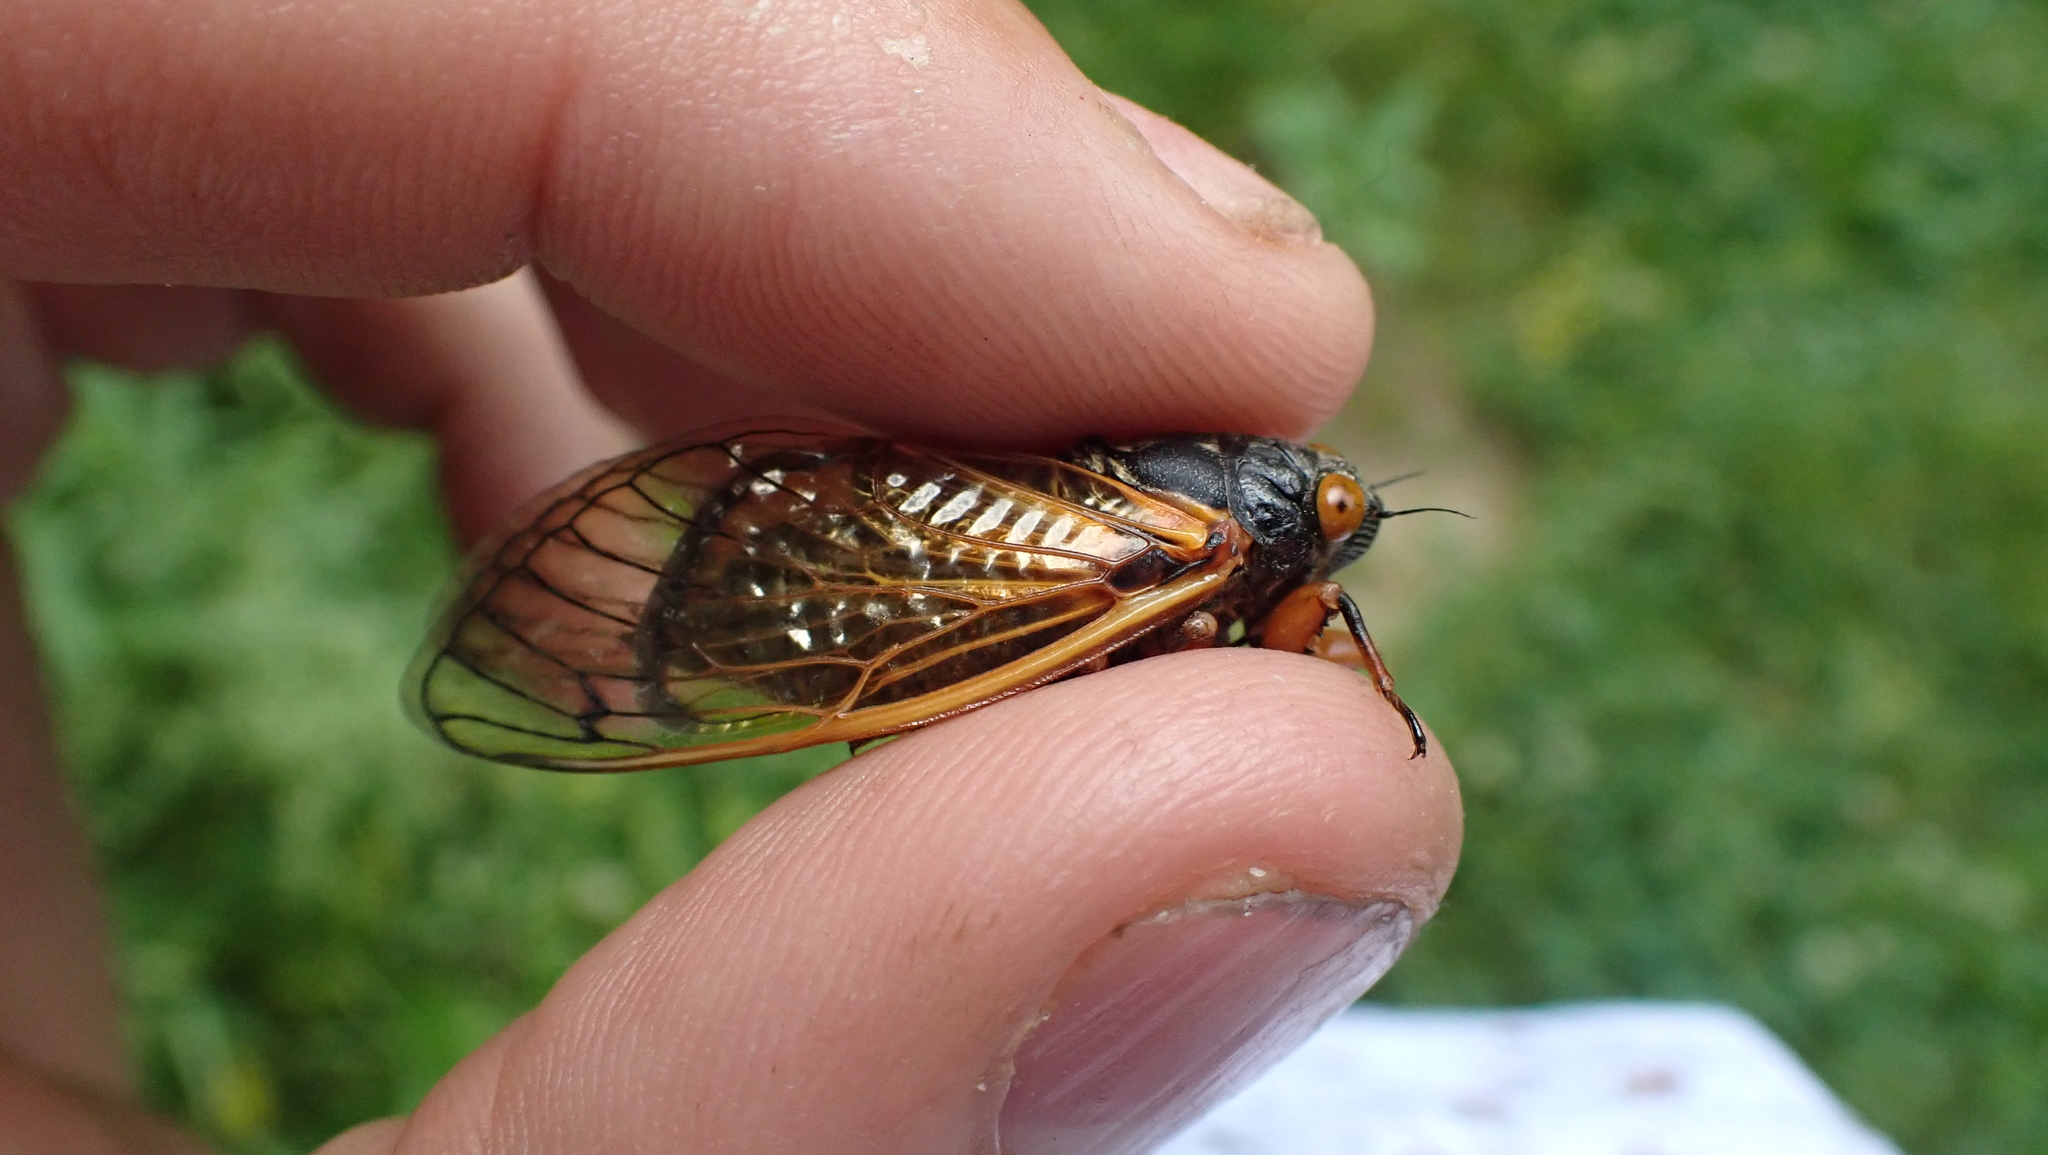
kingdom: Animalia
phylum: Arthropoda
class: Insecta
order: Hemiptera
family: Cicadidae
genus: Magicicada
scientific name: Magicicada cassini
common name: Cassin's 17-year cicada
